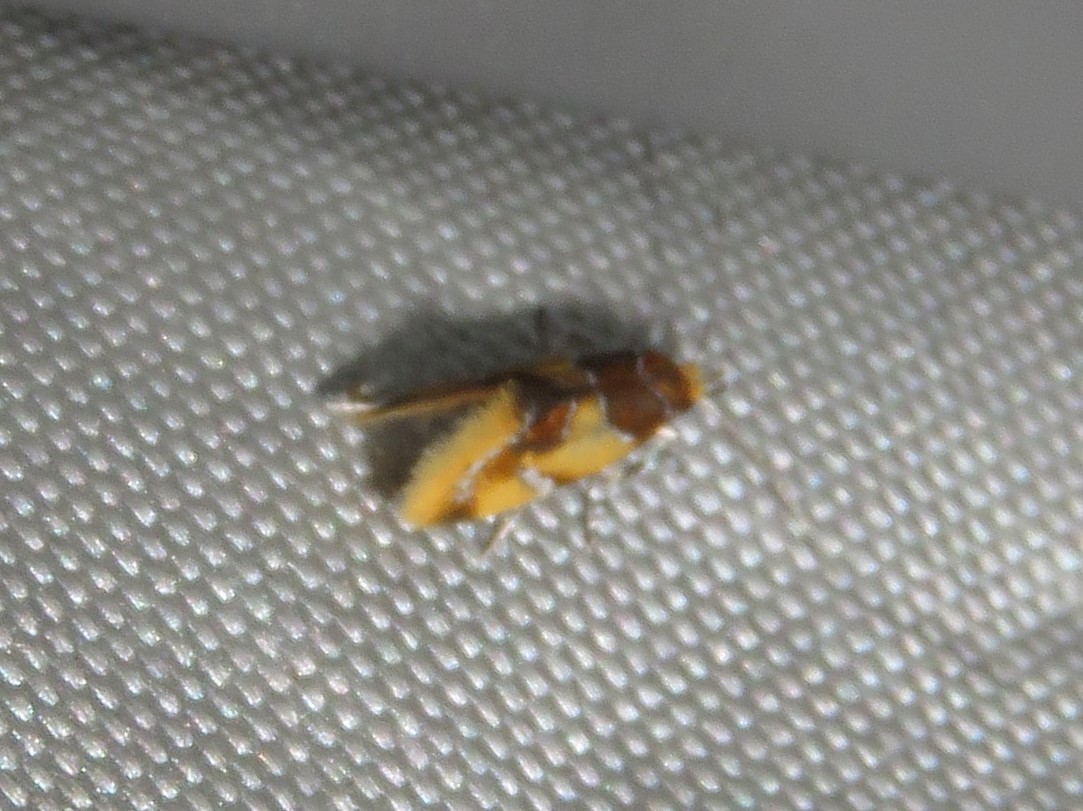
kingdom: Animalia
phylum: Arthropoda
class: Insecta
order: Lepidoptera
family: Oecophoridae
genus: Callima
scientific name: Callima argenticinctella
